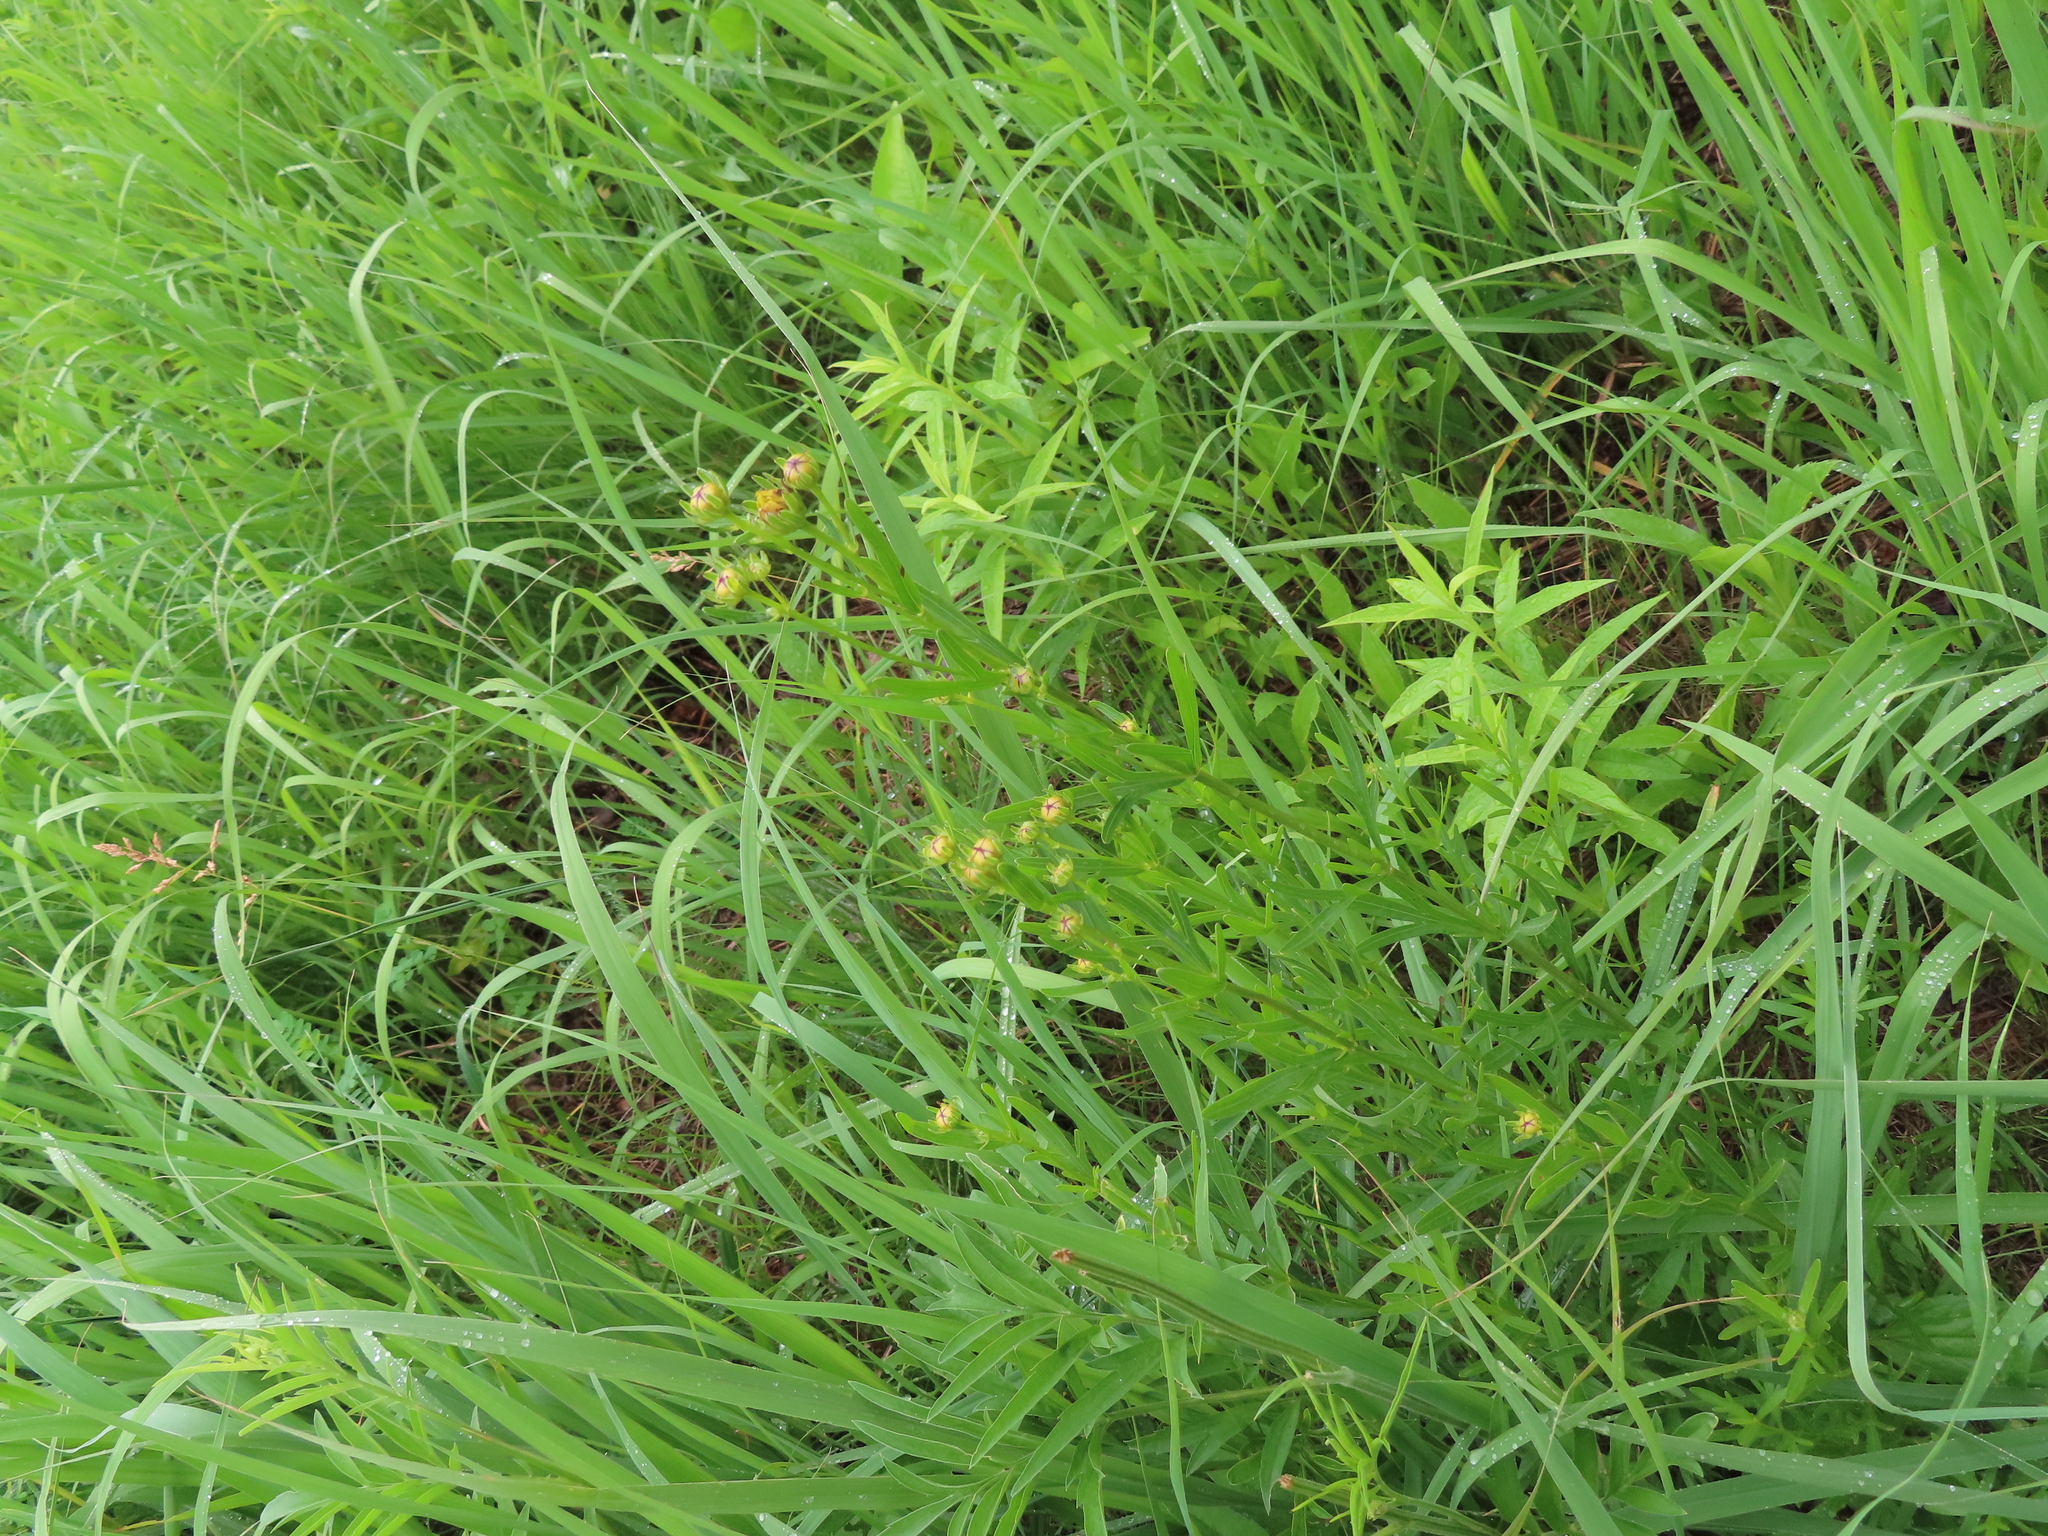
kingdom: Plantae
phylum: Tracheophyta
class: Magnoliopsida
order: Asterales
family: Asteraceae
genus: Coreopsis
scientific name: Coreopsis palmata
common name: Prairie coreopsis
